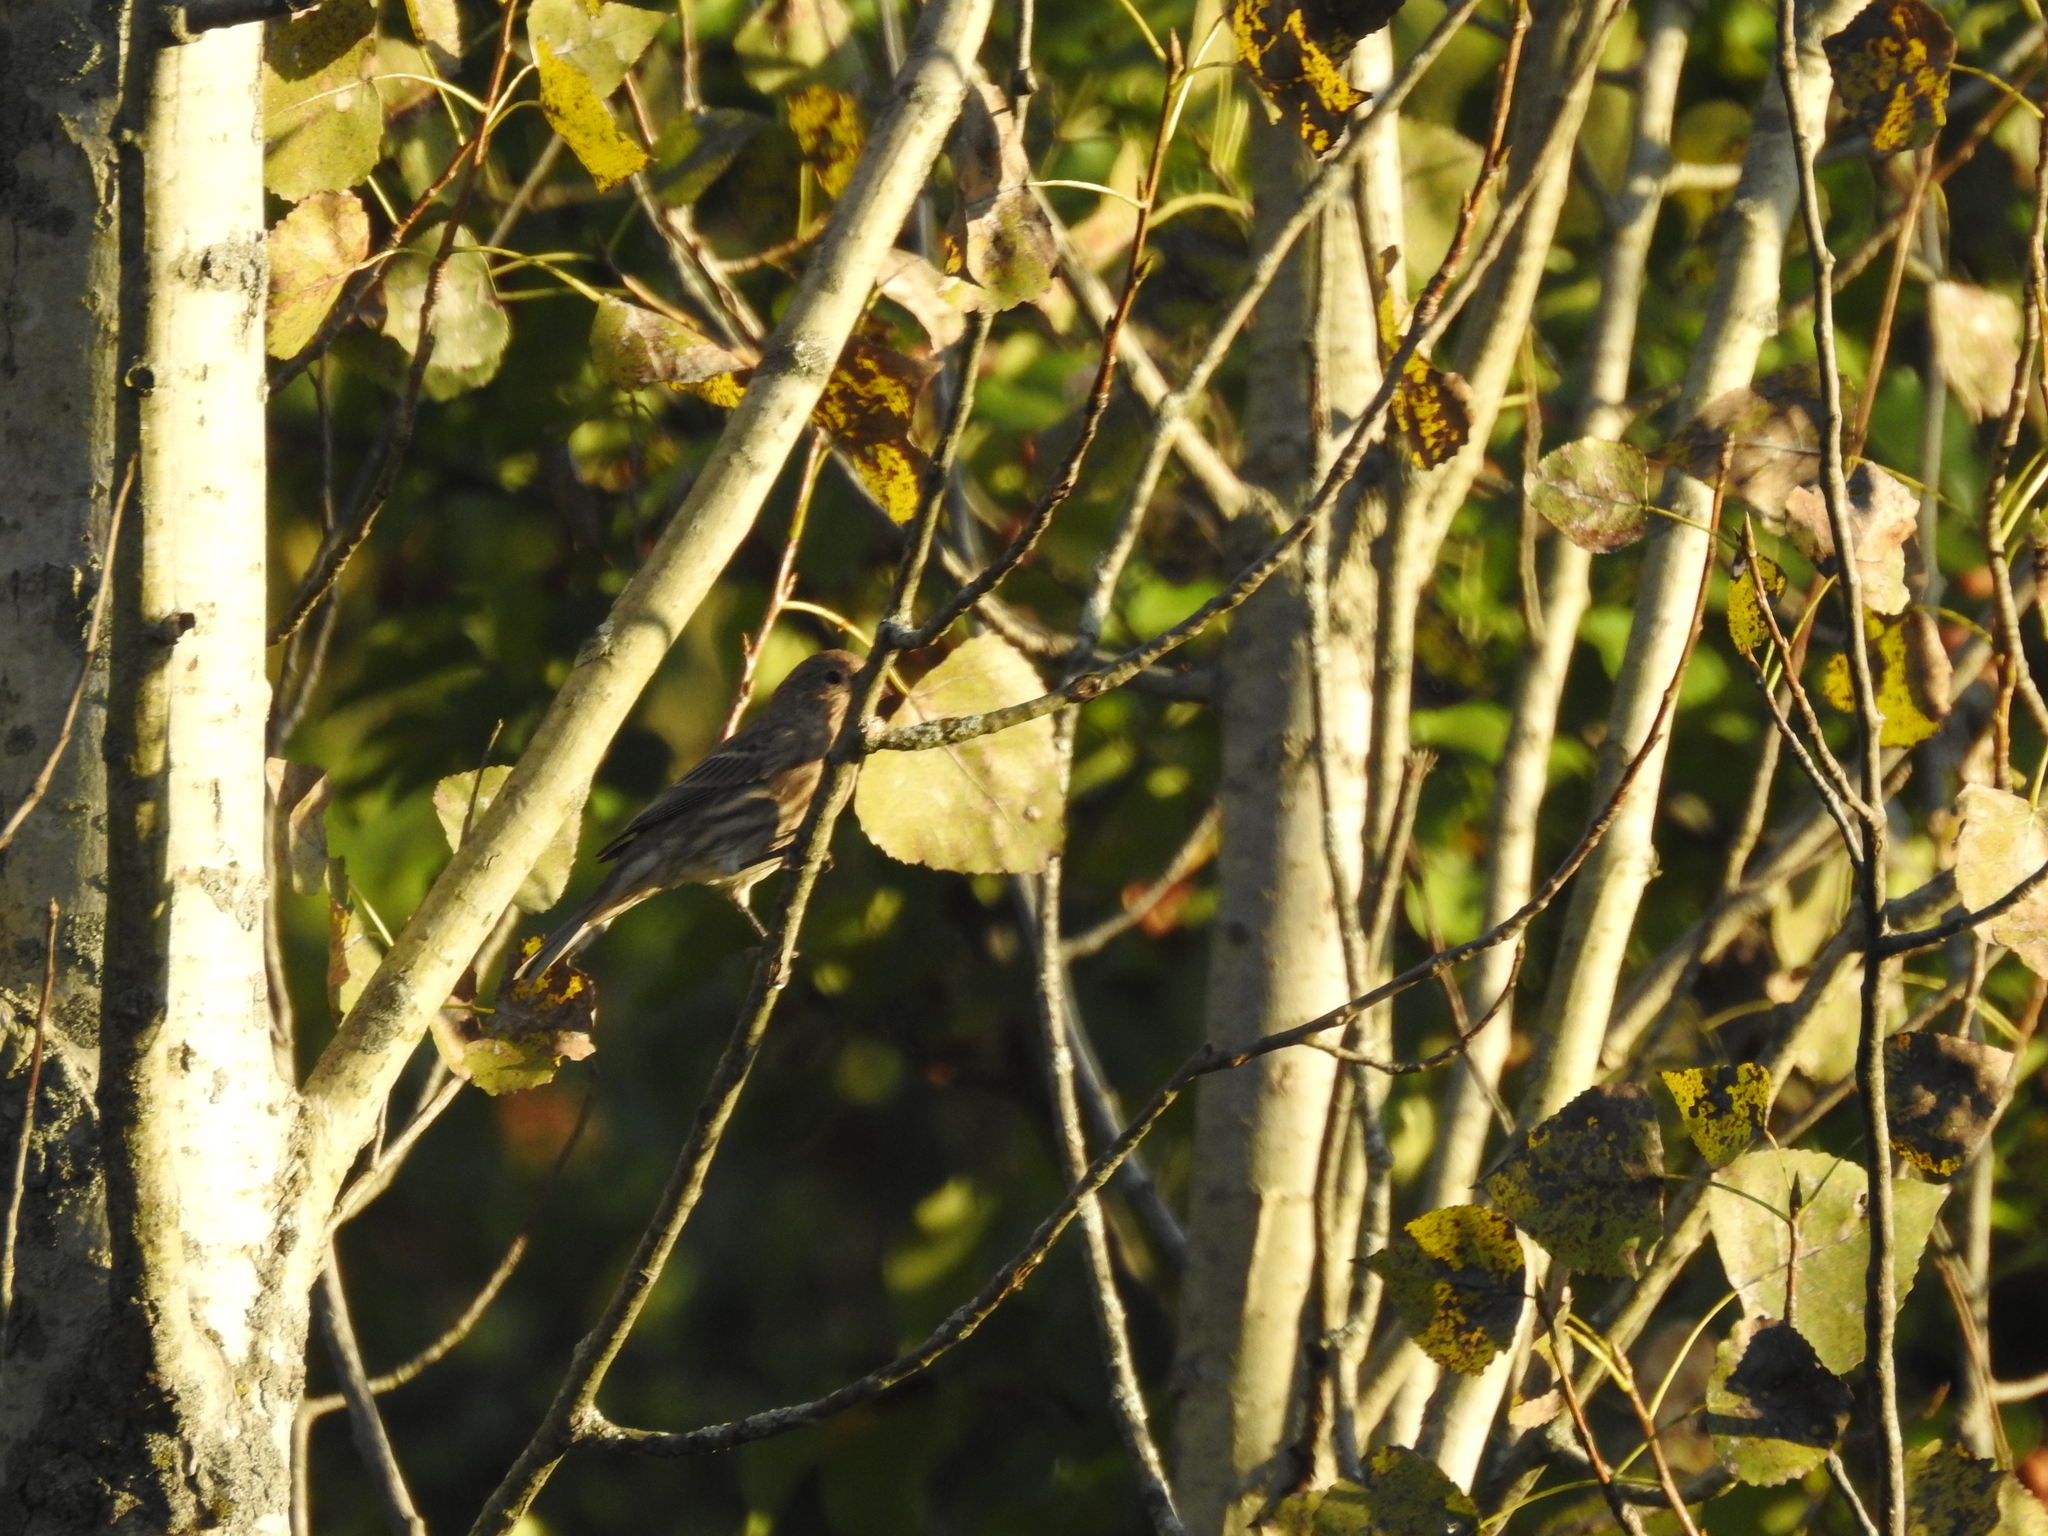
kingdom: Animalia
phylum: Chordata
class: Aves
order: Passeriformes
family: Fringillidae
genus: Haemorhous
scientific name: Haemorhous mexicanus
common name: House finch
